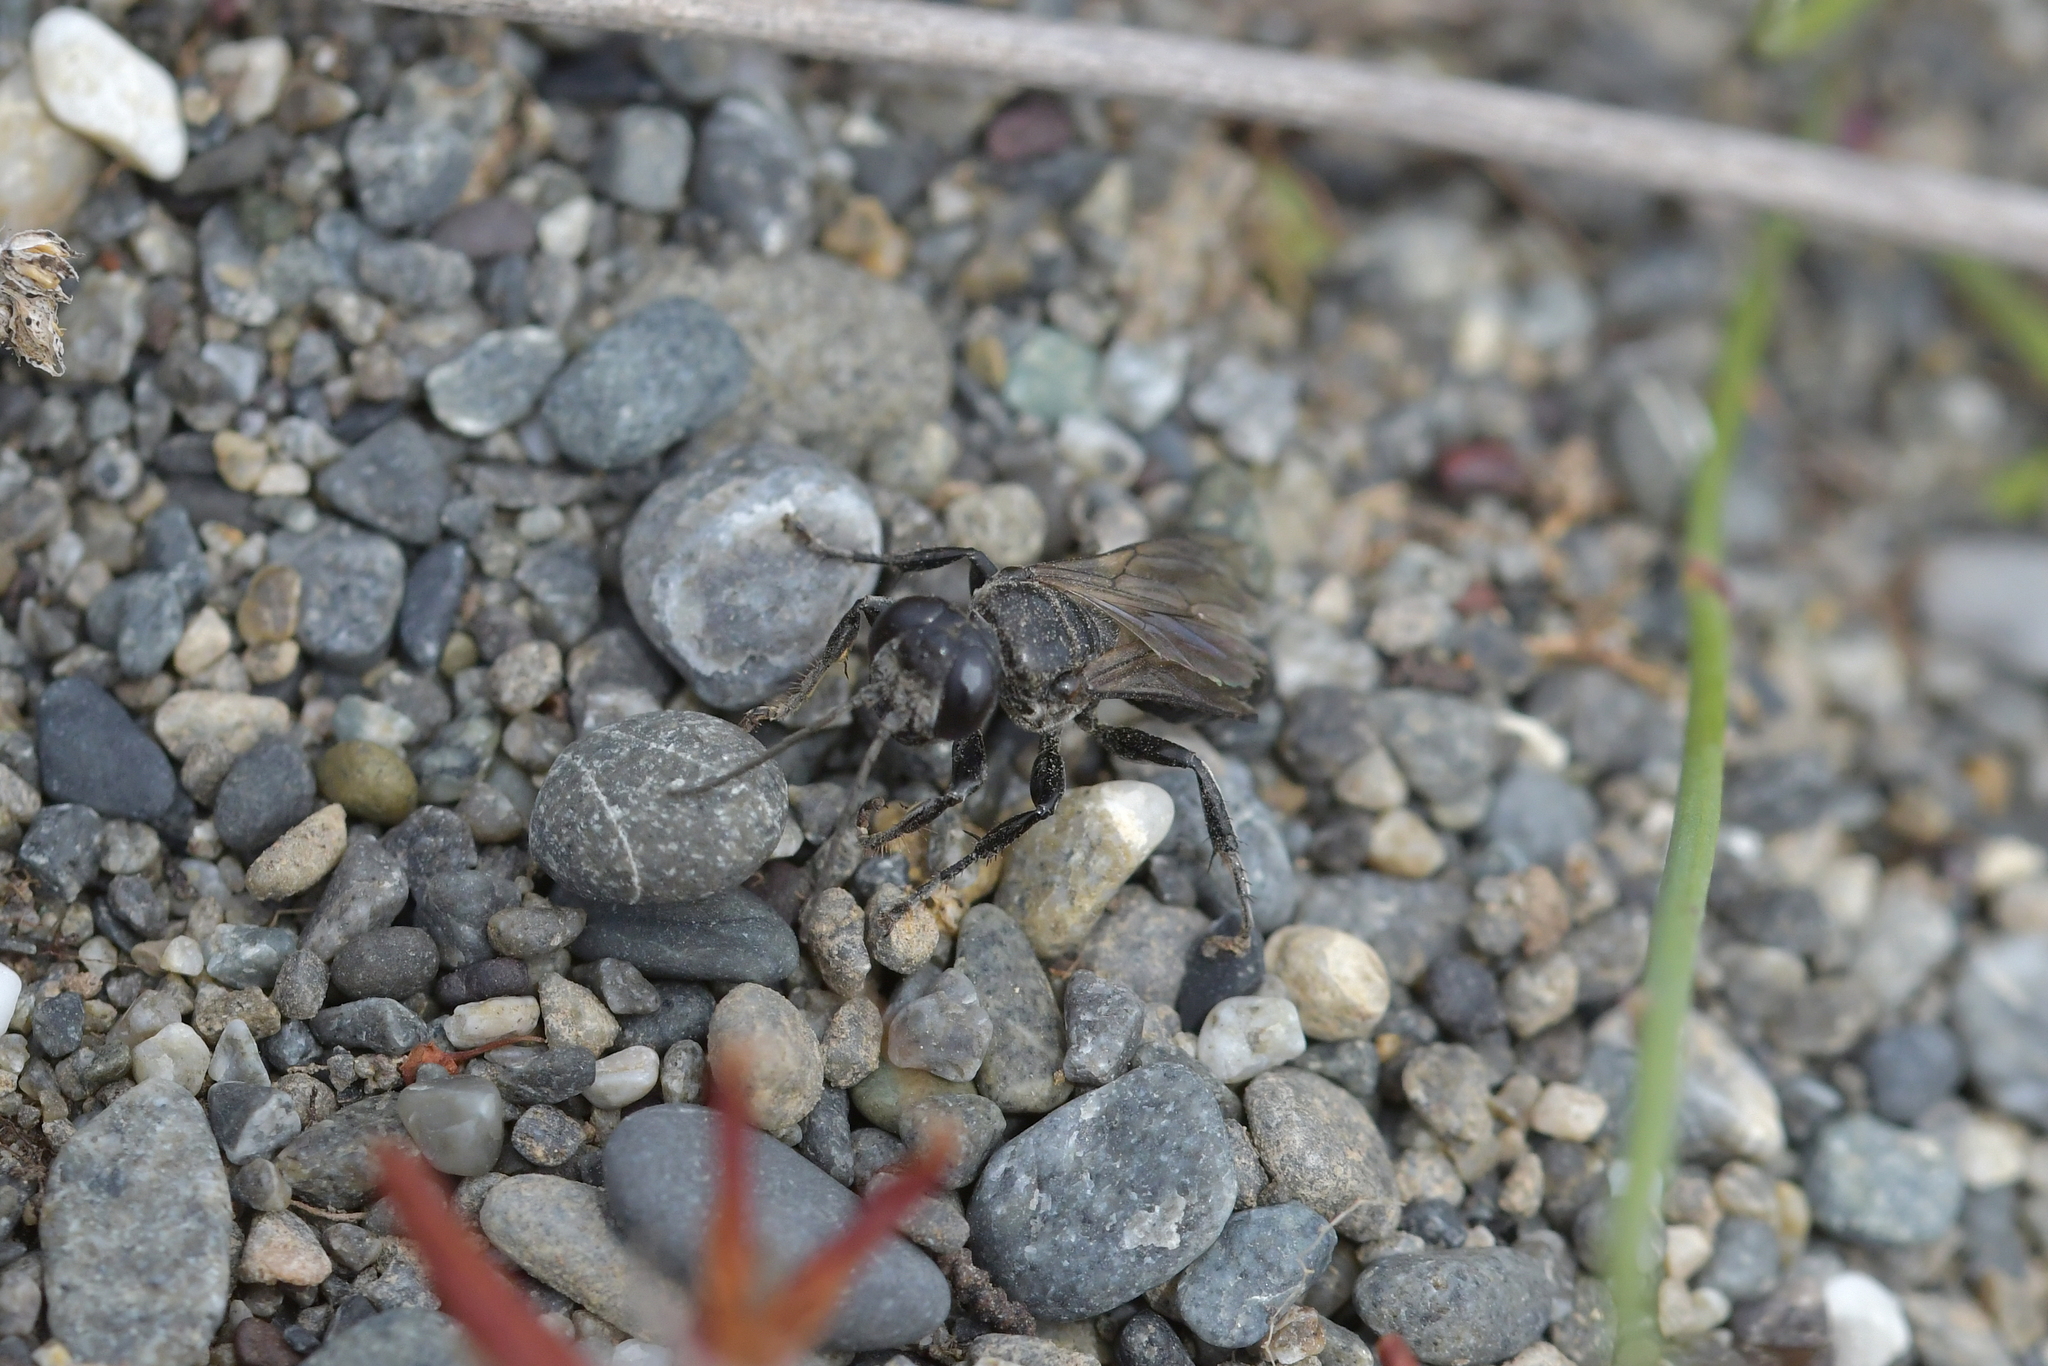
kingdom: Animalia
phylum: Arthropoda
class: Insecta
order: Hymenoptera
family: Crabronidae
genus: Tachysphex
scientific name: Tachysphex nigerrimus
